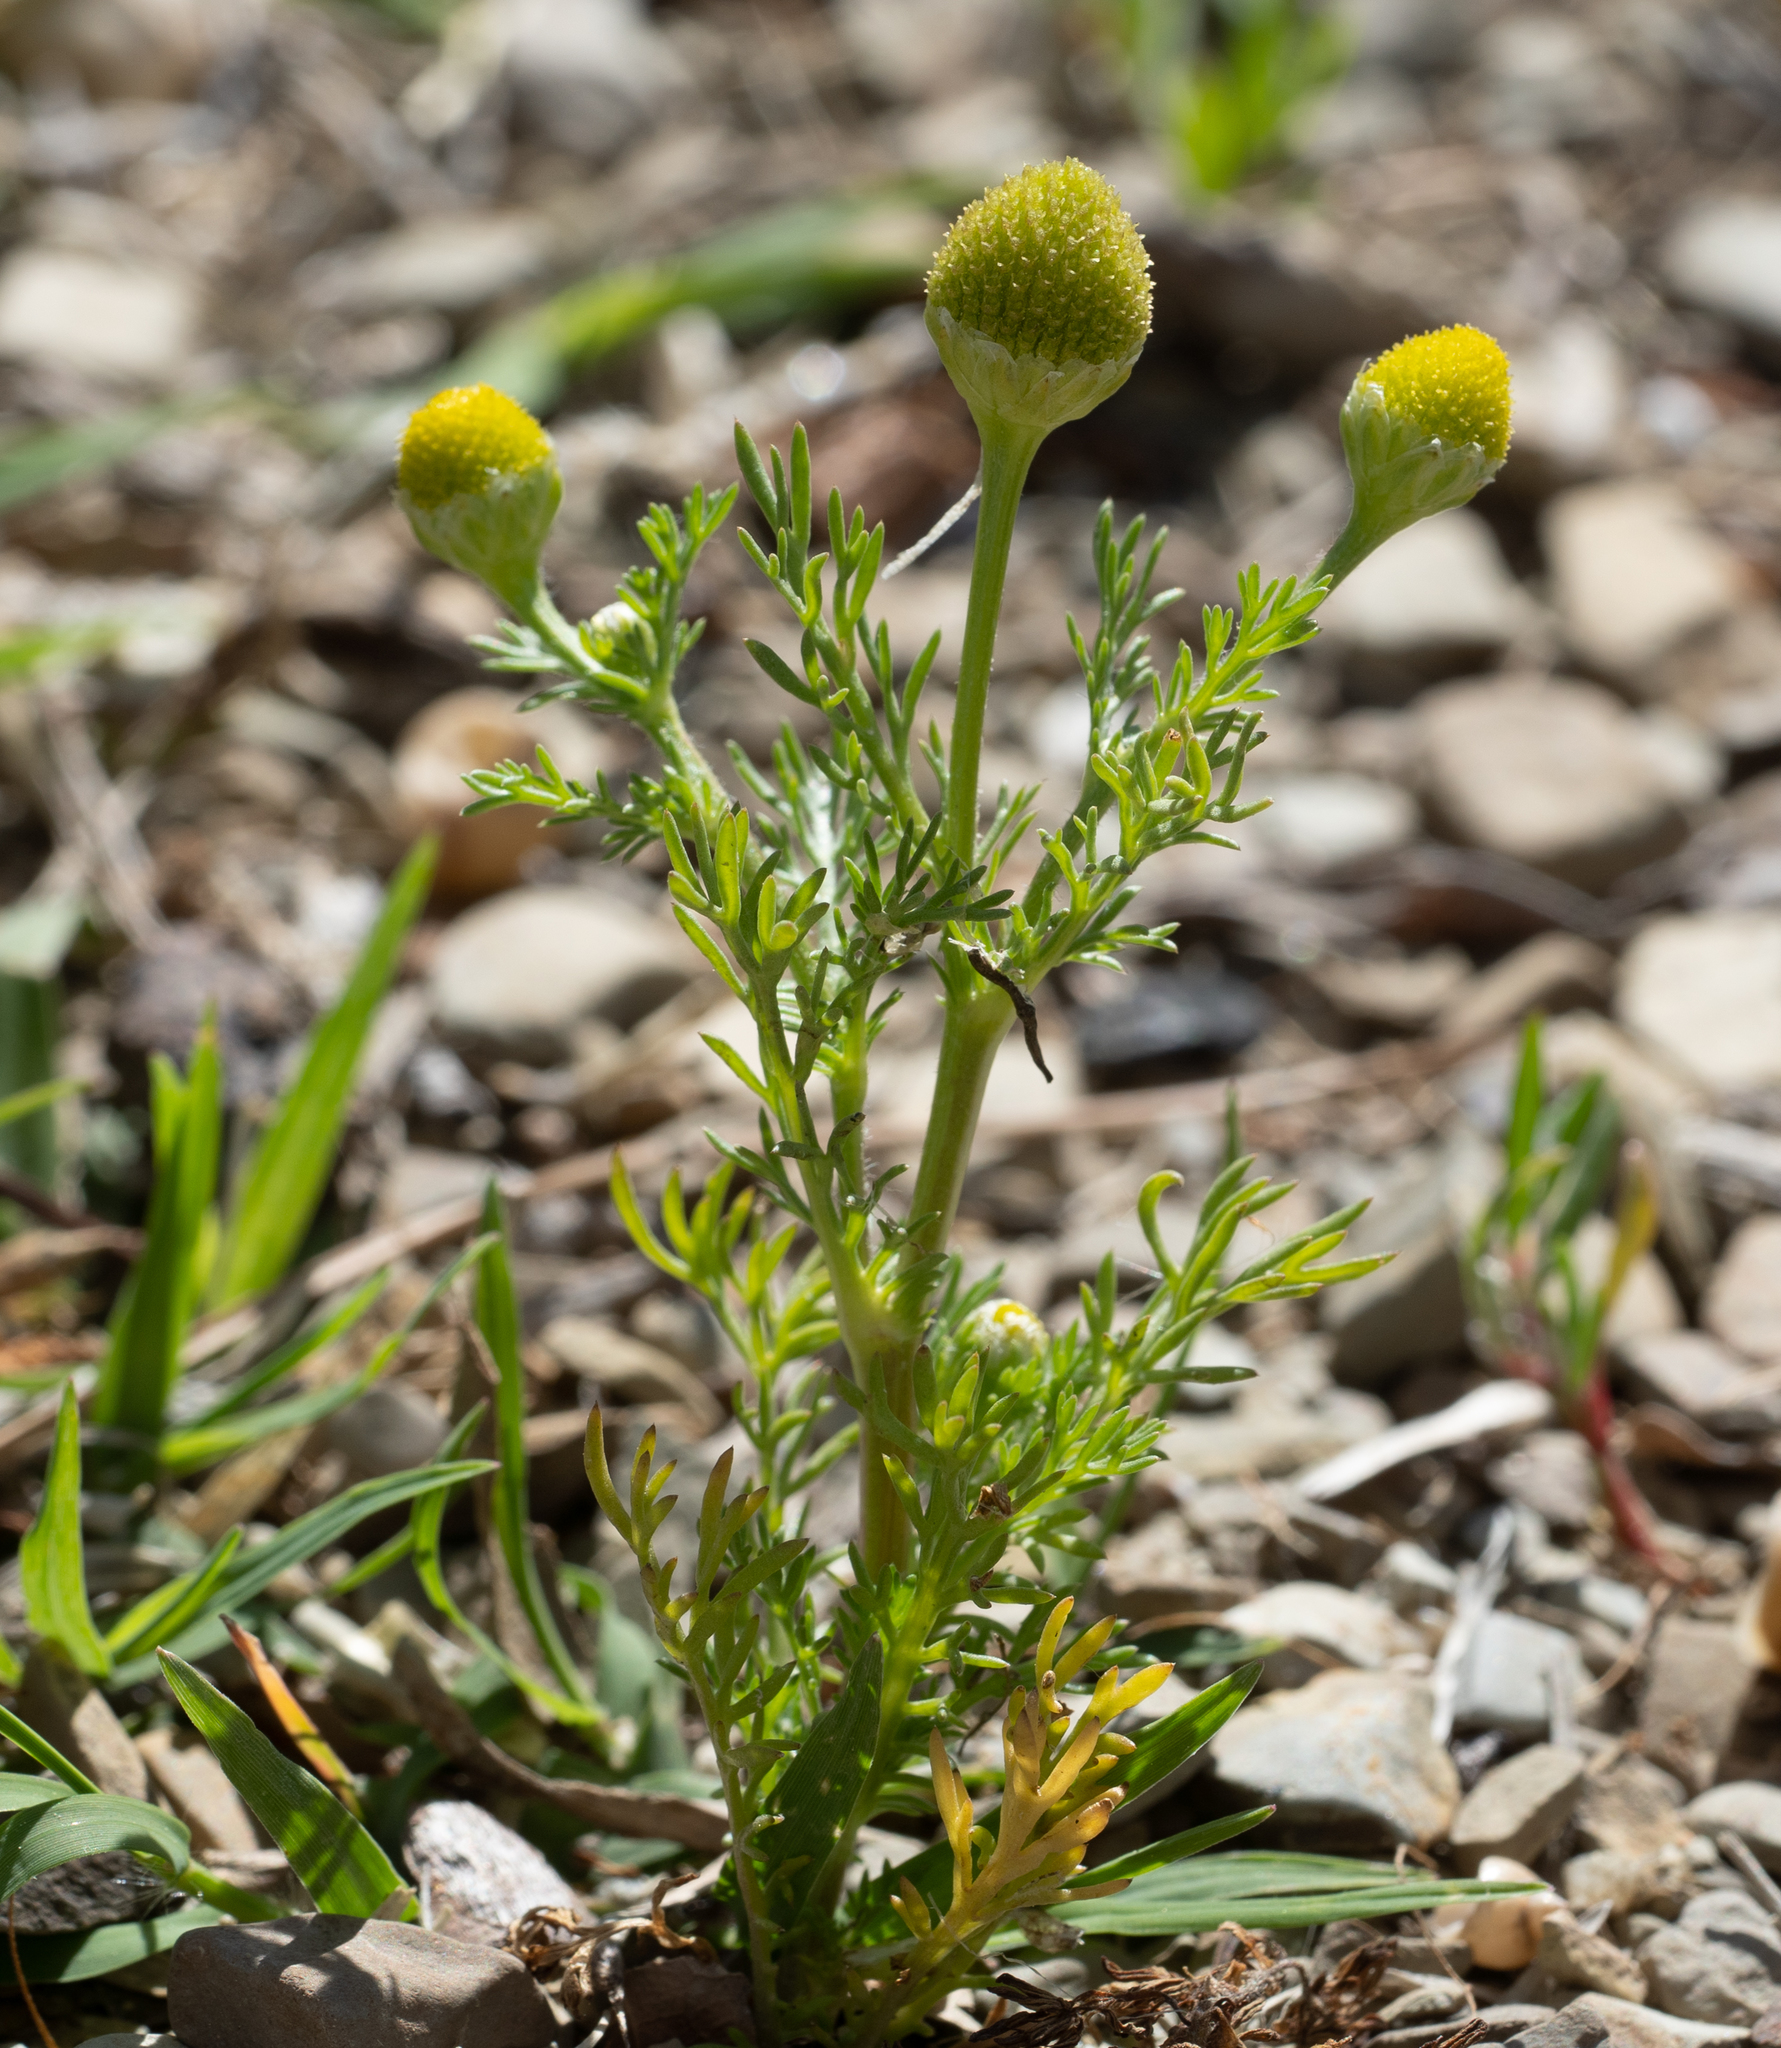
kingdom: Plantae
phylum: Tracheophyta
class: Magnoliopsida
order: Asterales
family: Asteraceae
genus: Matricaria
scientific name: Matricaria discoidea
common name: Disc mayweed
